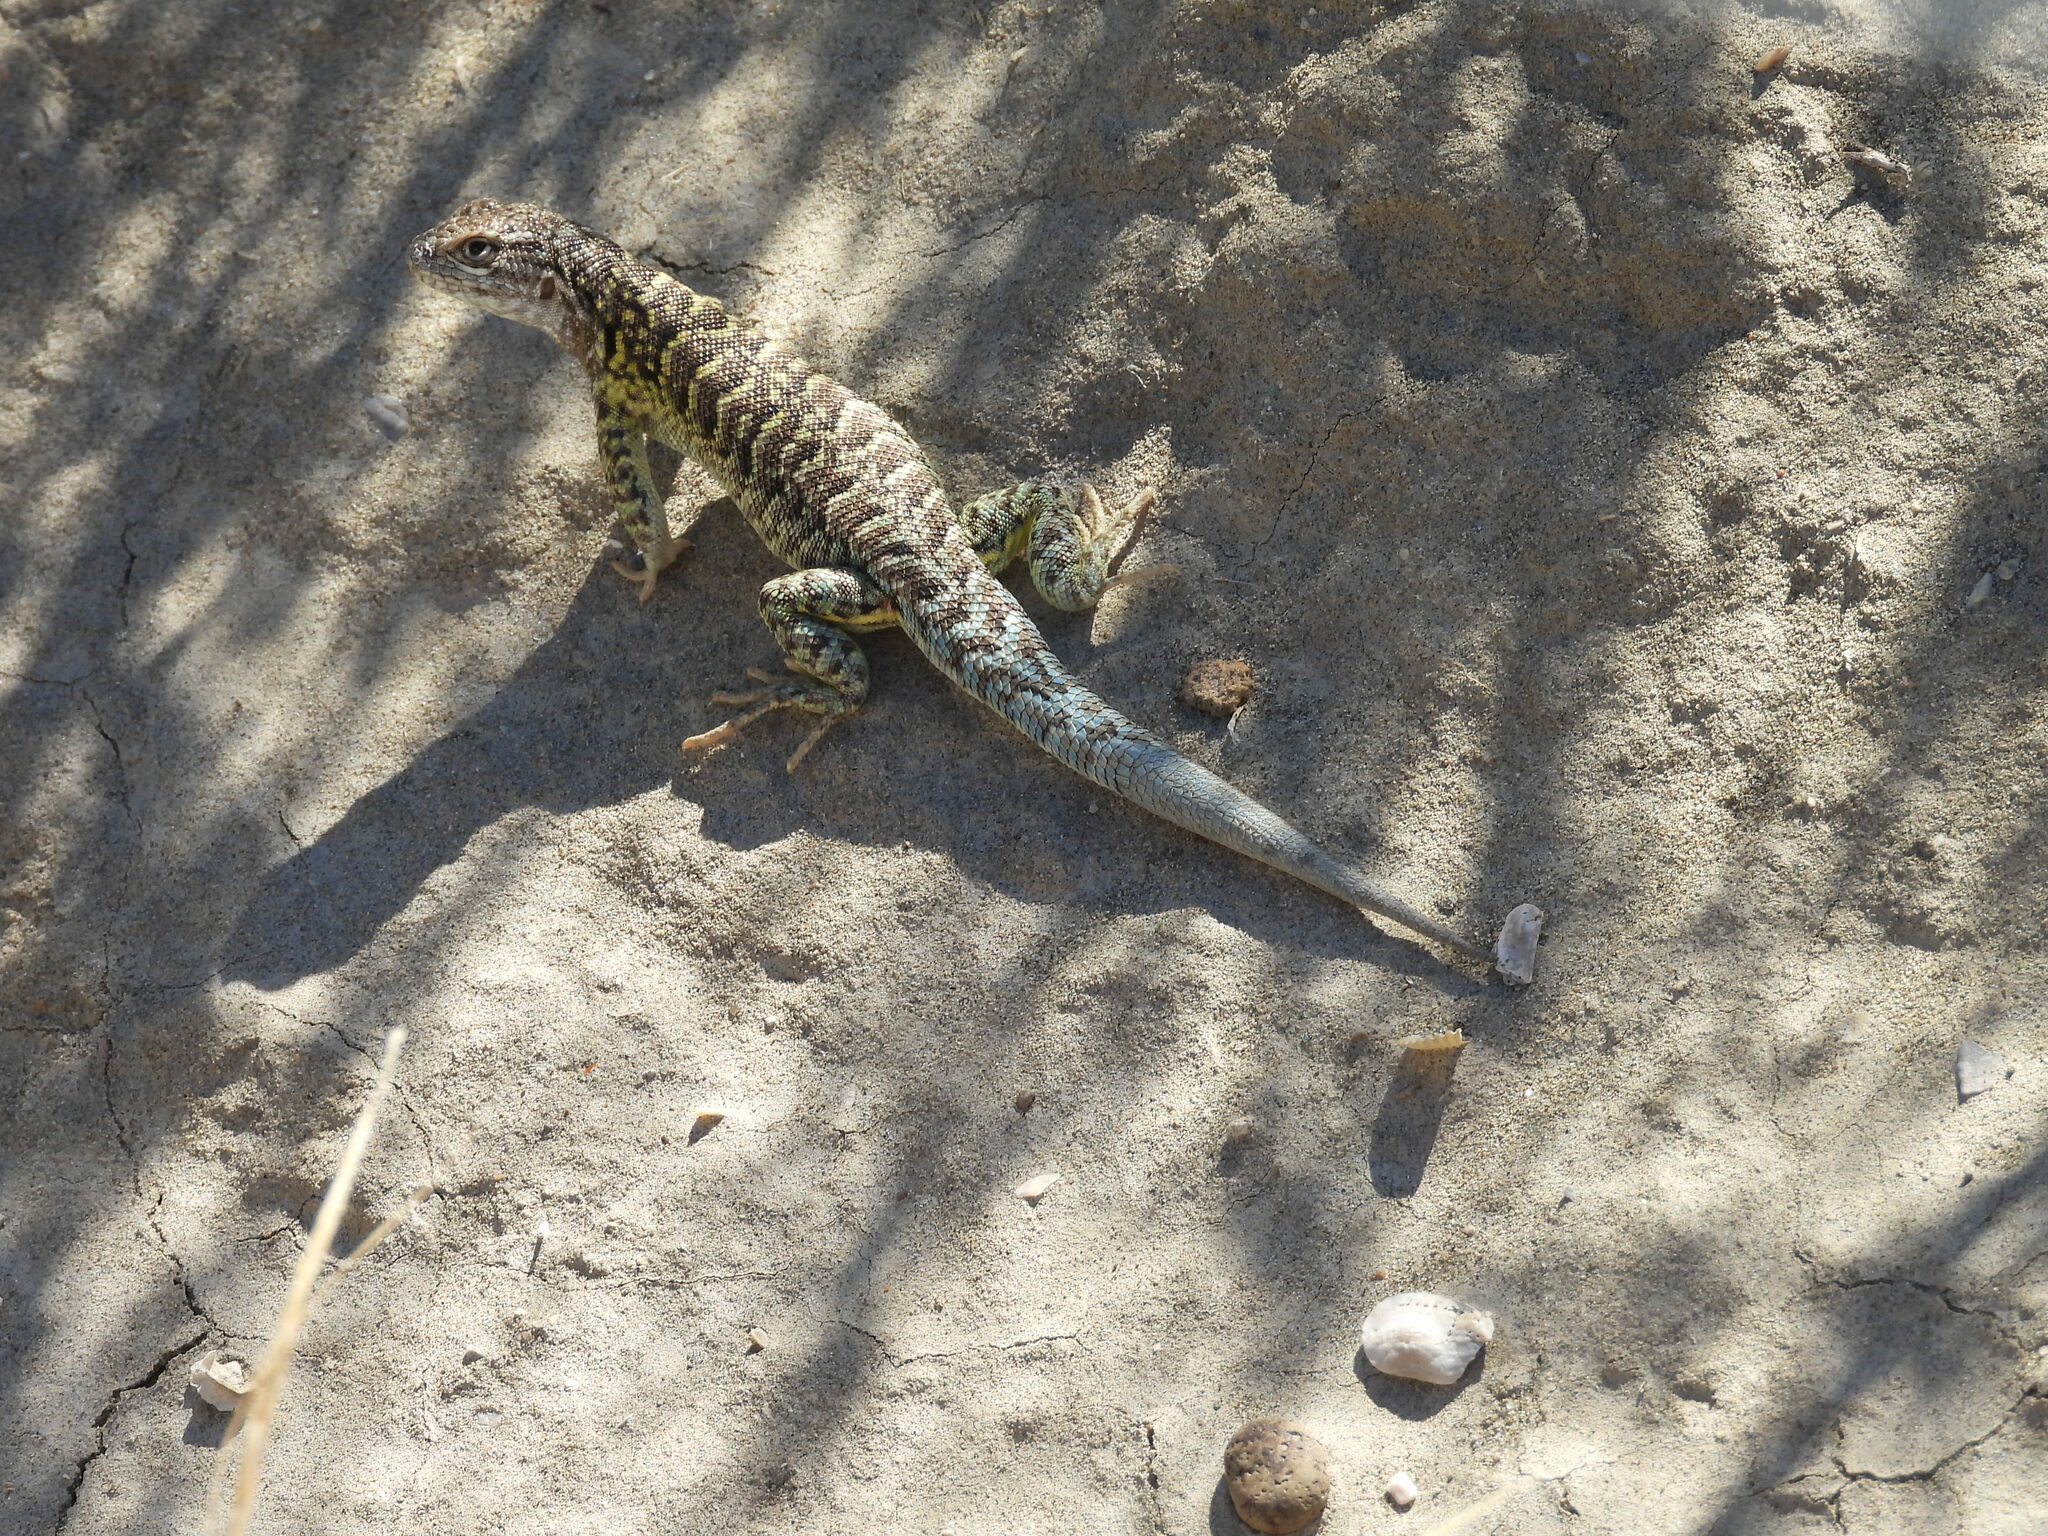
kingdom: Animalia
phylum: Chordata
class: Squamata
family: Liolaemidae
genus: Liolaemus
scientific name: Liolaemus melanops
